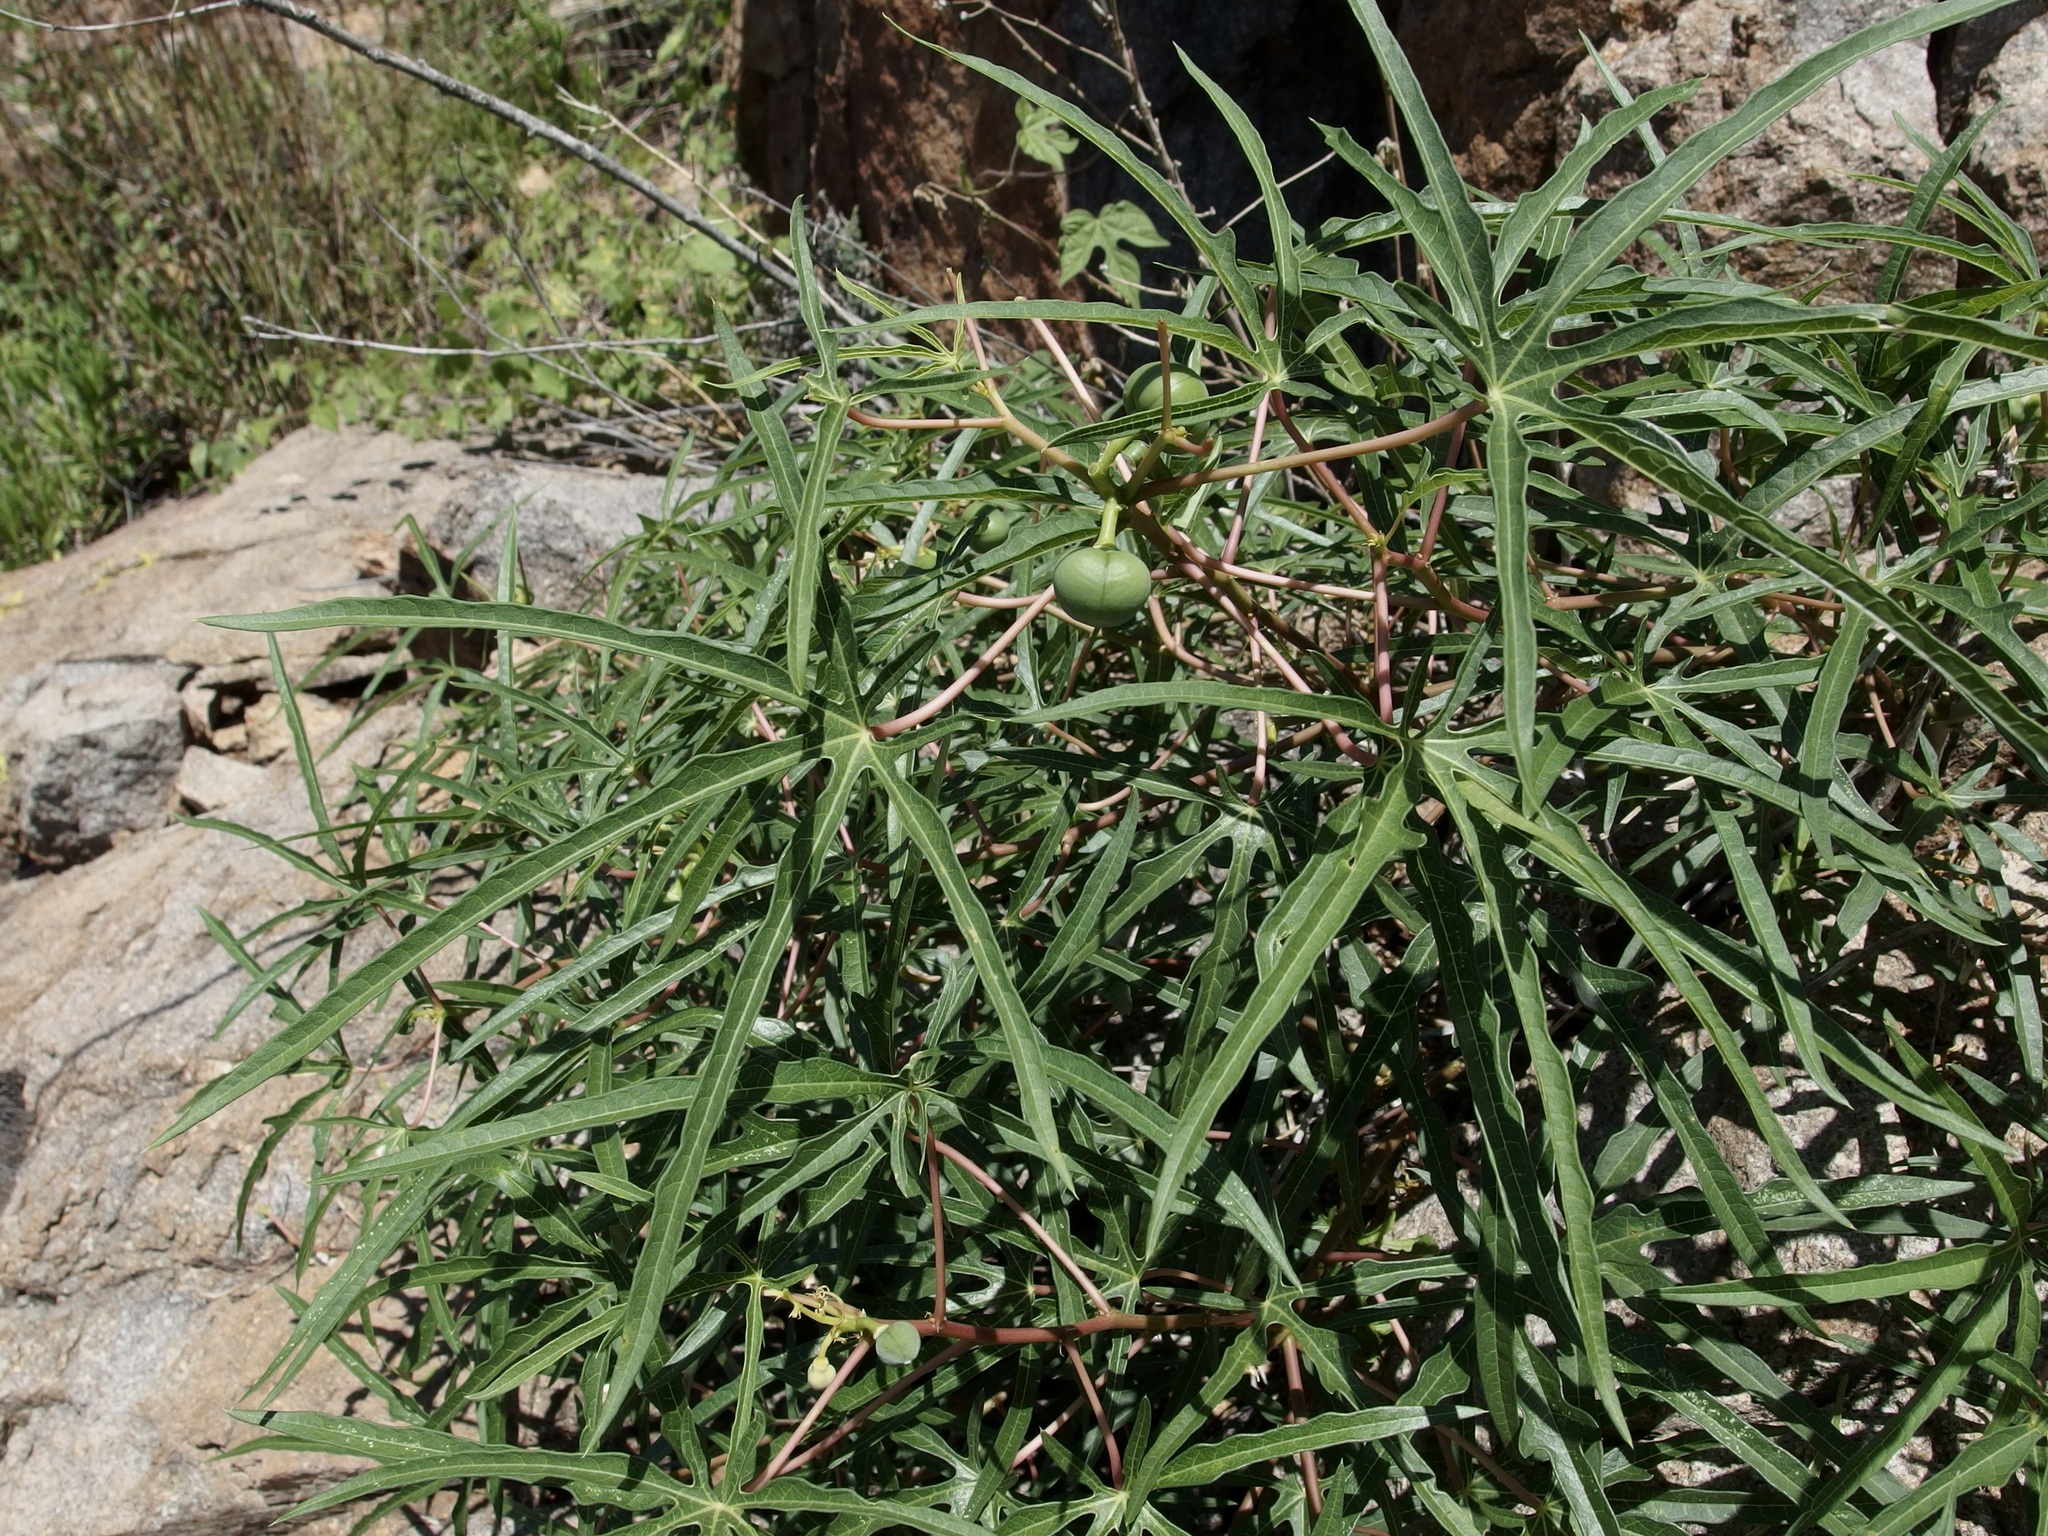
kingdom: Plantae
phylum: Tracheophyta
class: Magnoliopsida
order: Malpighiales
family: Euphorbiaceae
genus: Manihot
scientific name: Manihot angustiloba
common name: Desert mountain manihot
